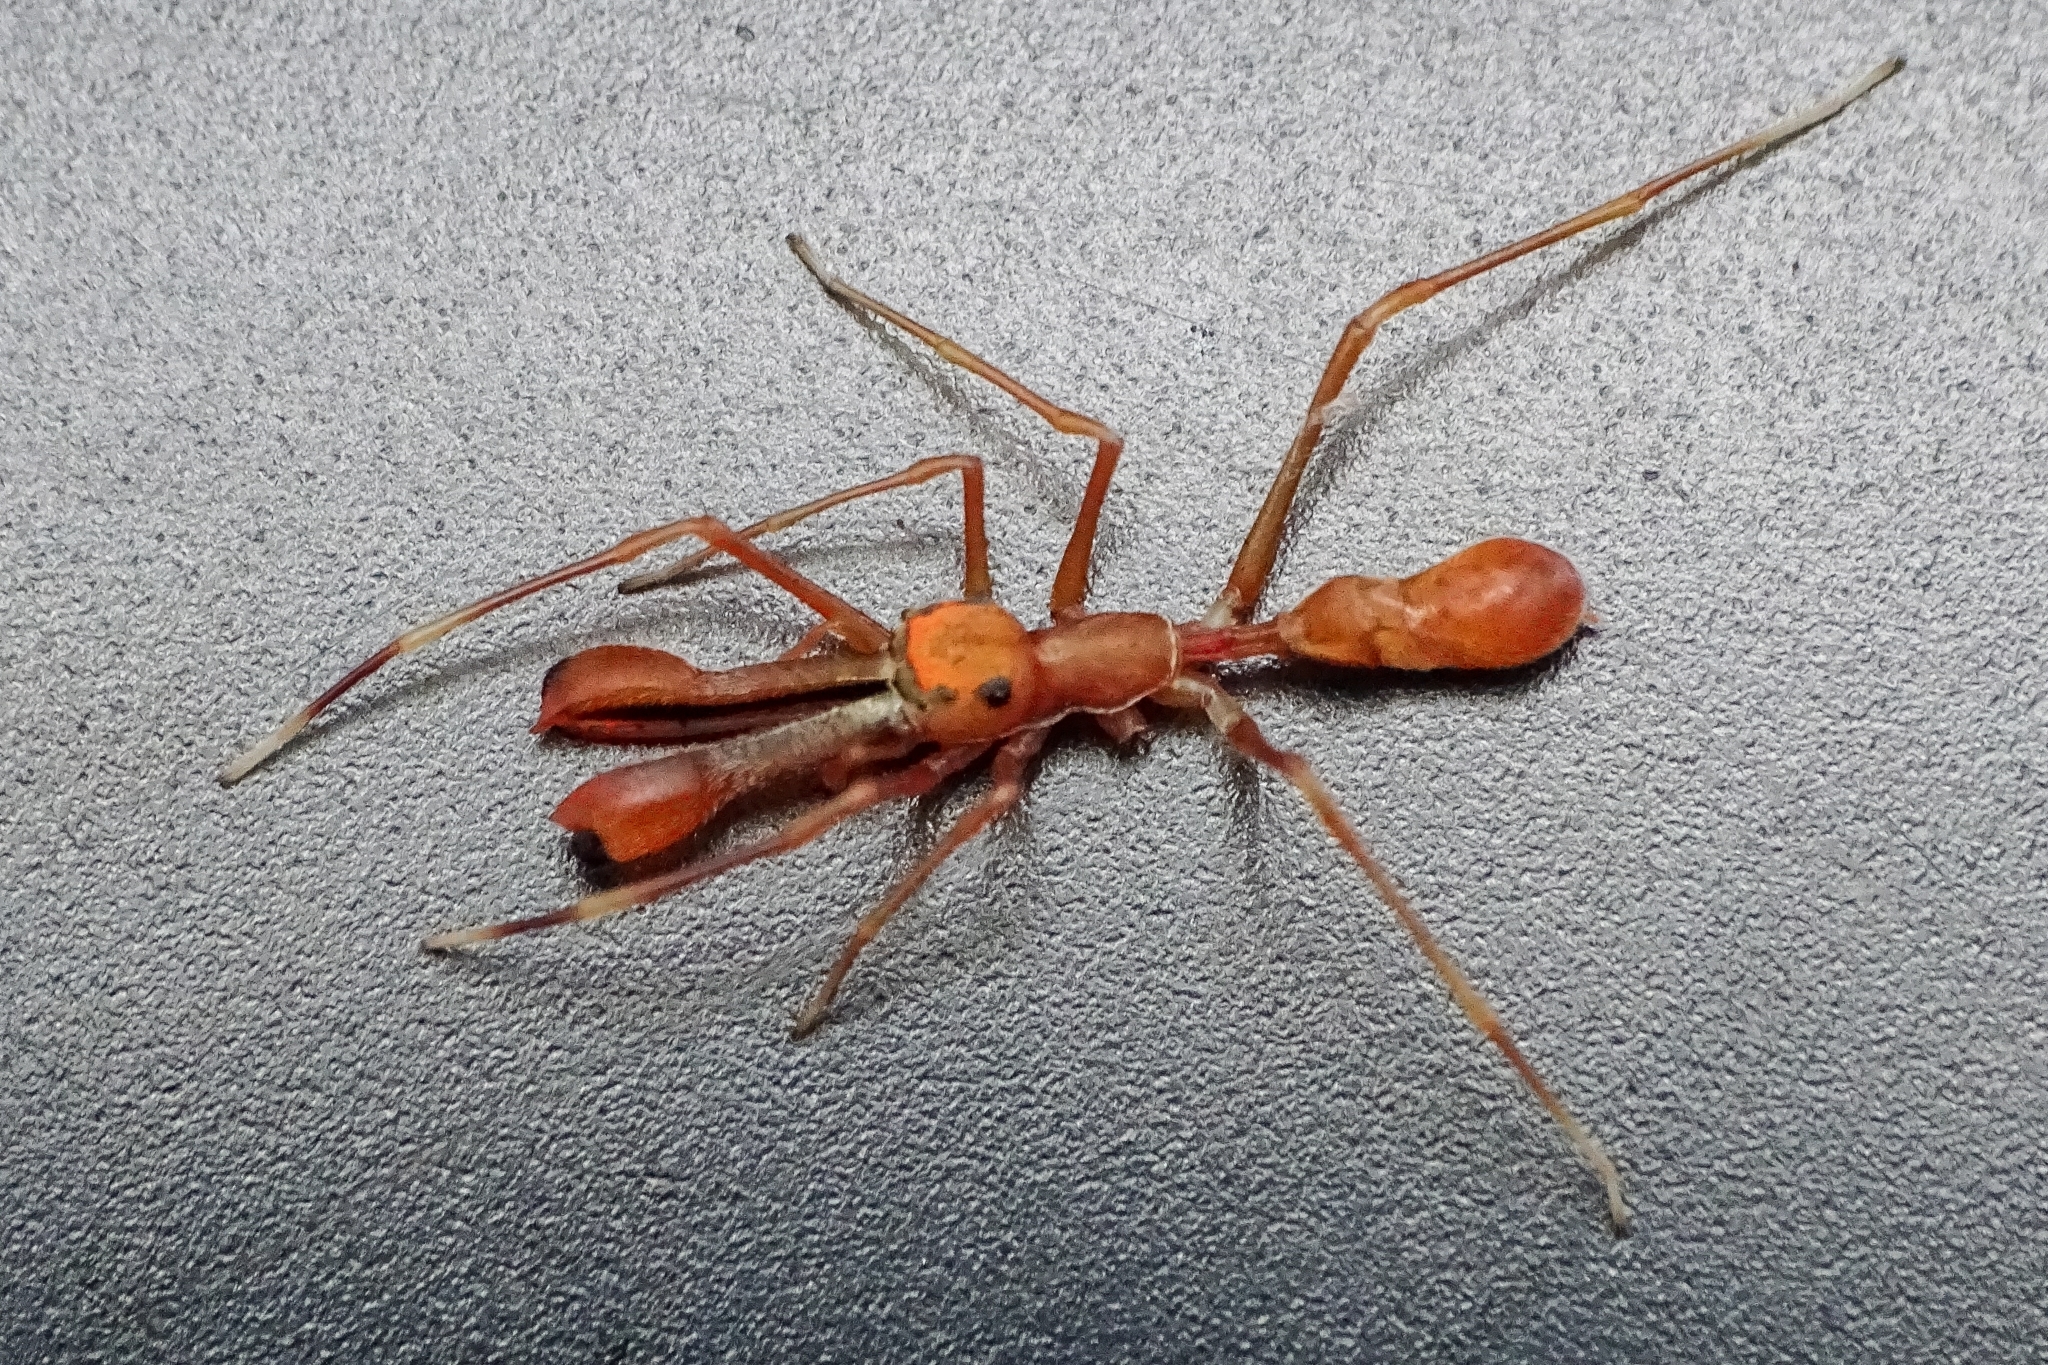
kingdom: Animalia
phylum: Arthropoda
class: Arachnida
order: Araneae
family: Salticidae
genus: Myrmaplata
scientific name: Myrmaplata plataleoides
